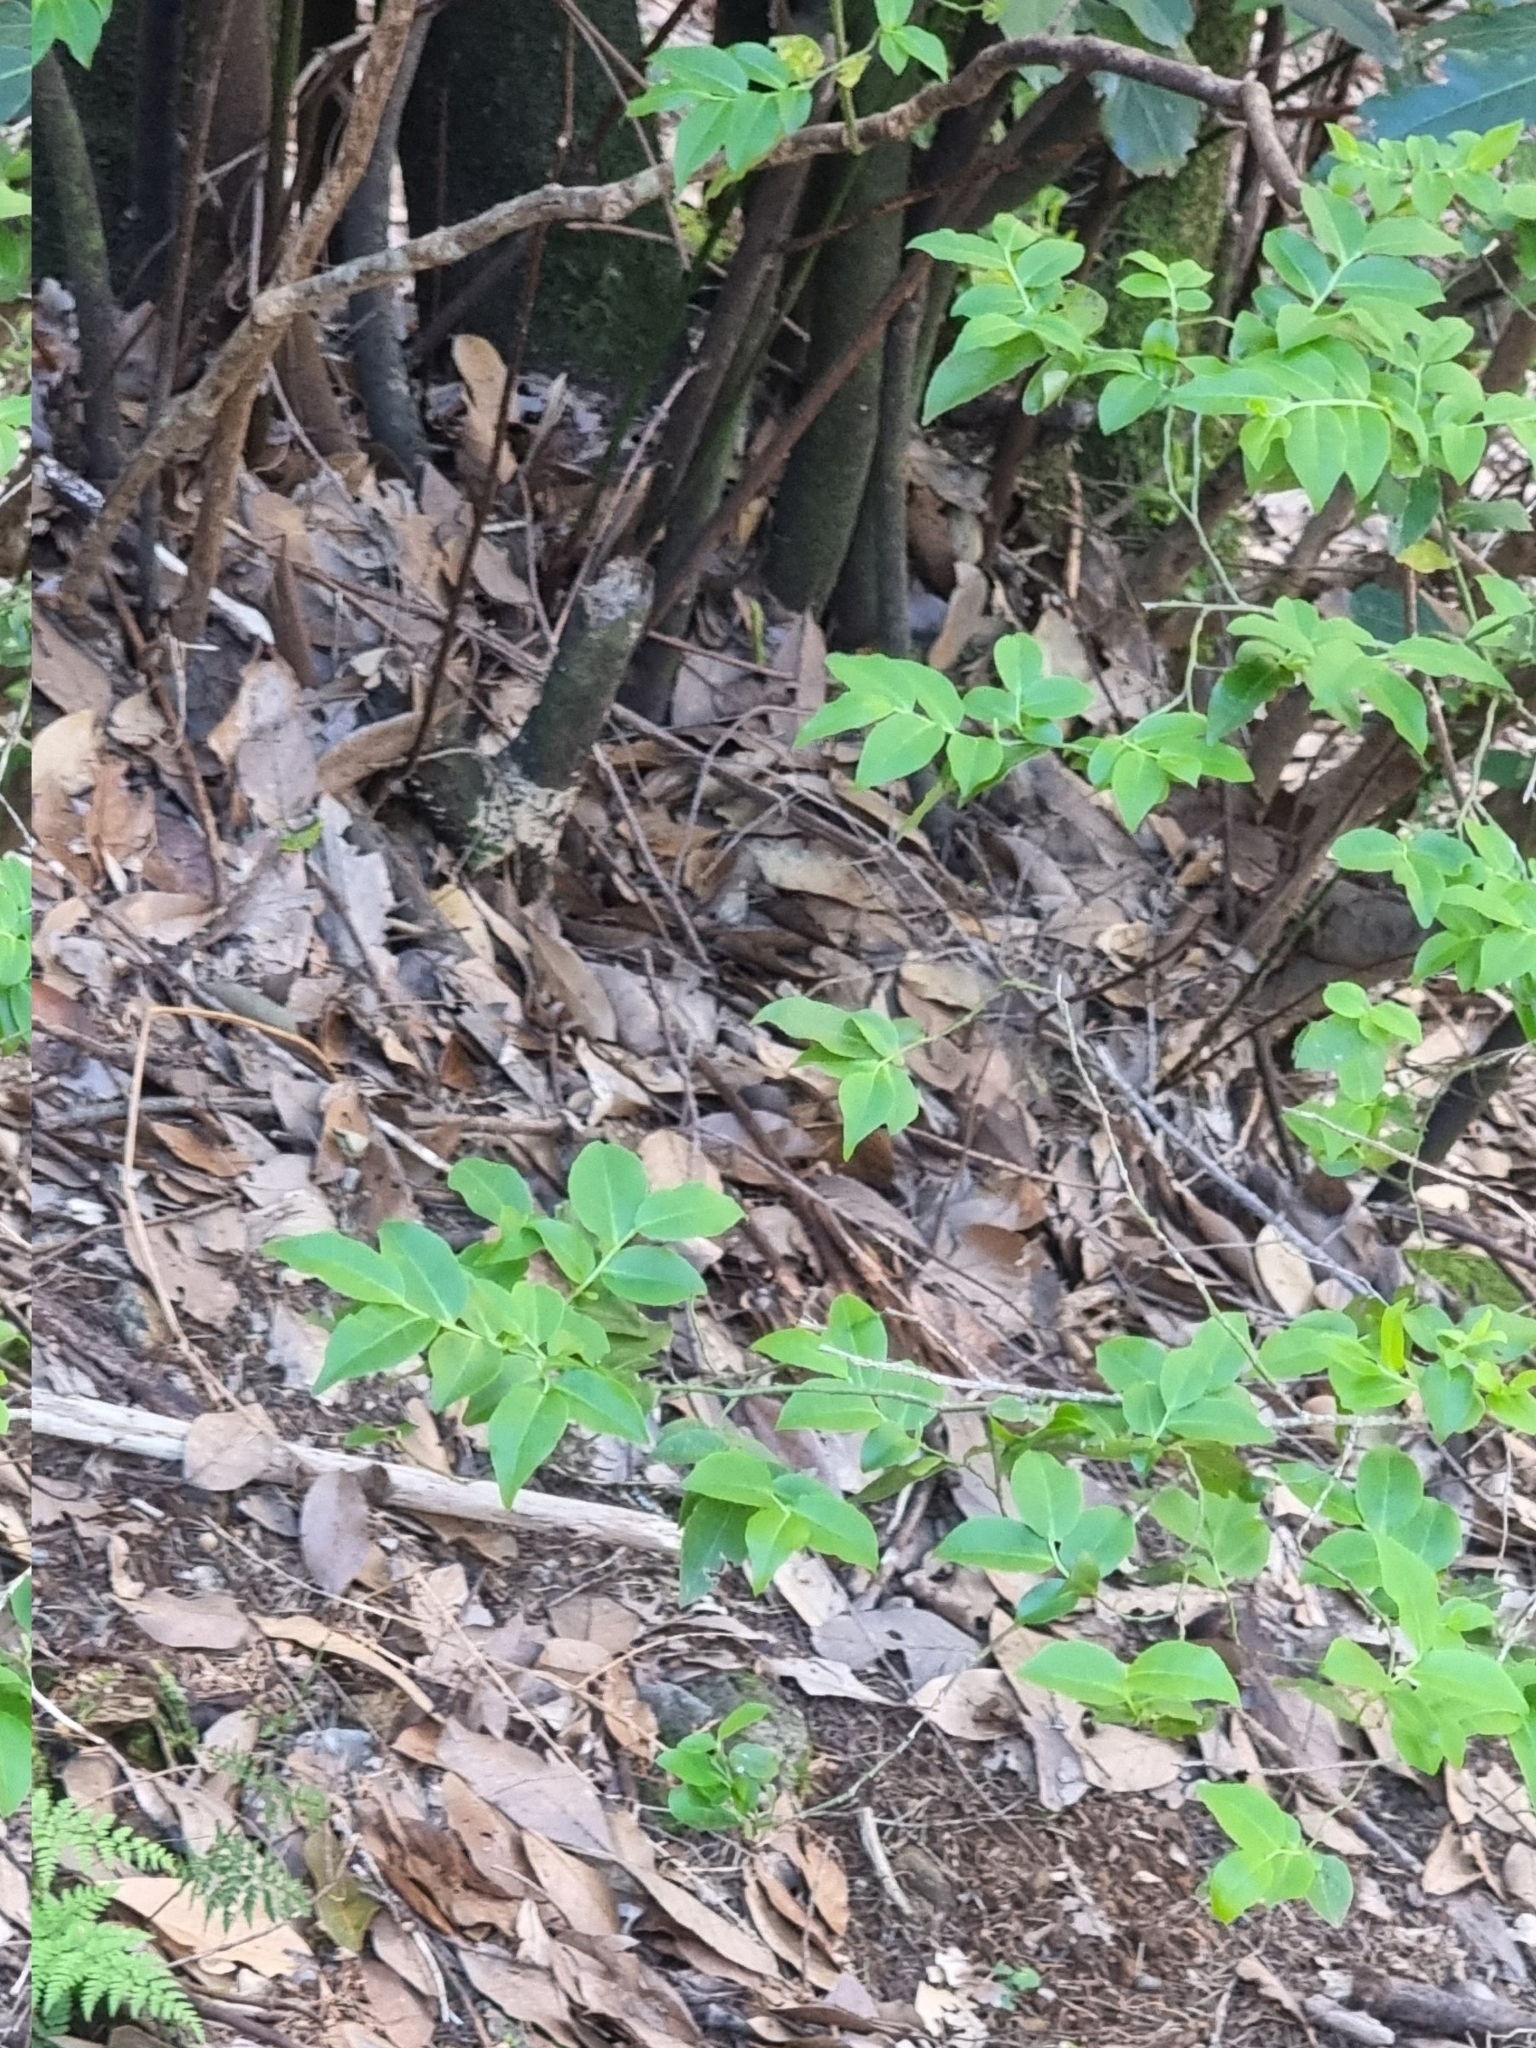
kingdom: Plantae
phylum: Tracheophyta
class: Magnoliopsida
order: Ericales
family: Ericaceae
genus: Vaccinium
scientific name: Vaccinium padifolium
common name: Madeiran blueberry
